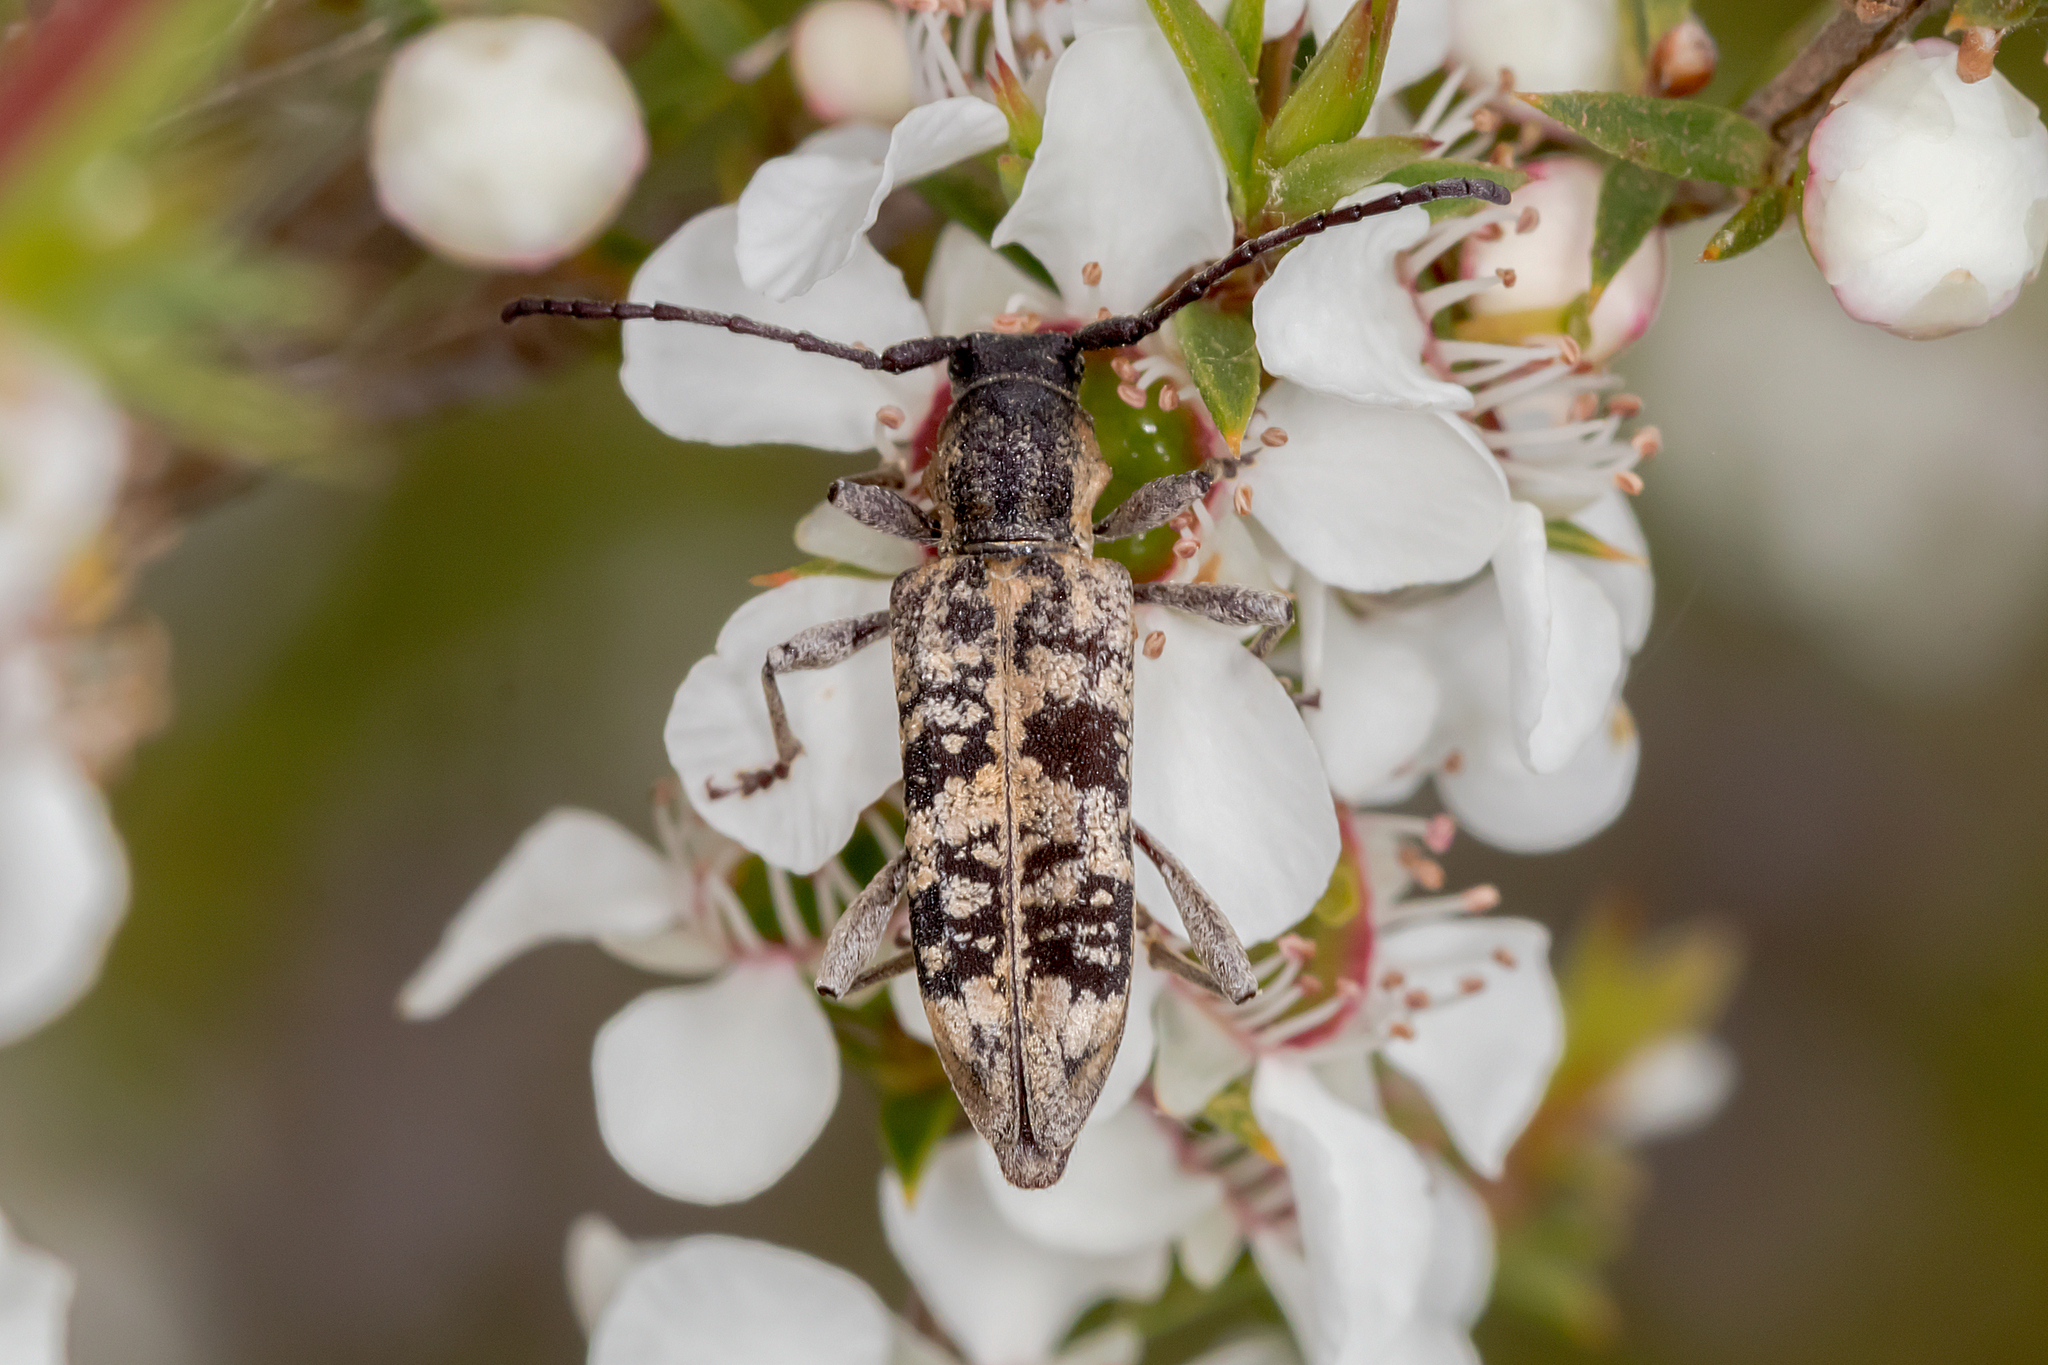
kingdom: Animalia
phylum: Arthropoda
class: Insecta
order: Coleoptera
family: Cerambycidae
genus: Pempsamacra
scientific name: Pempsamacra dispersa
